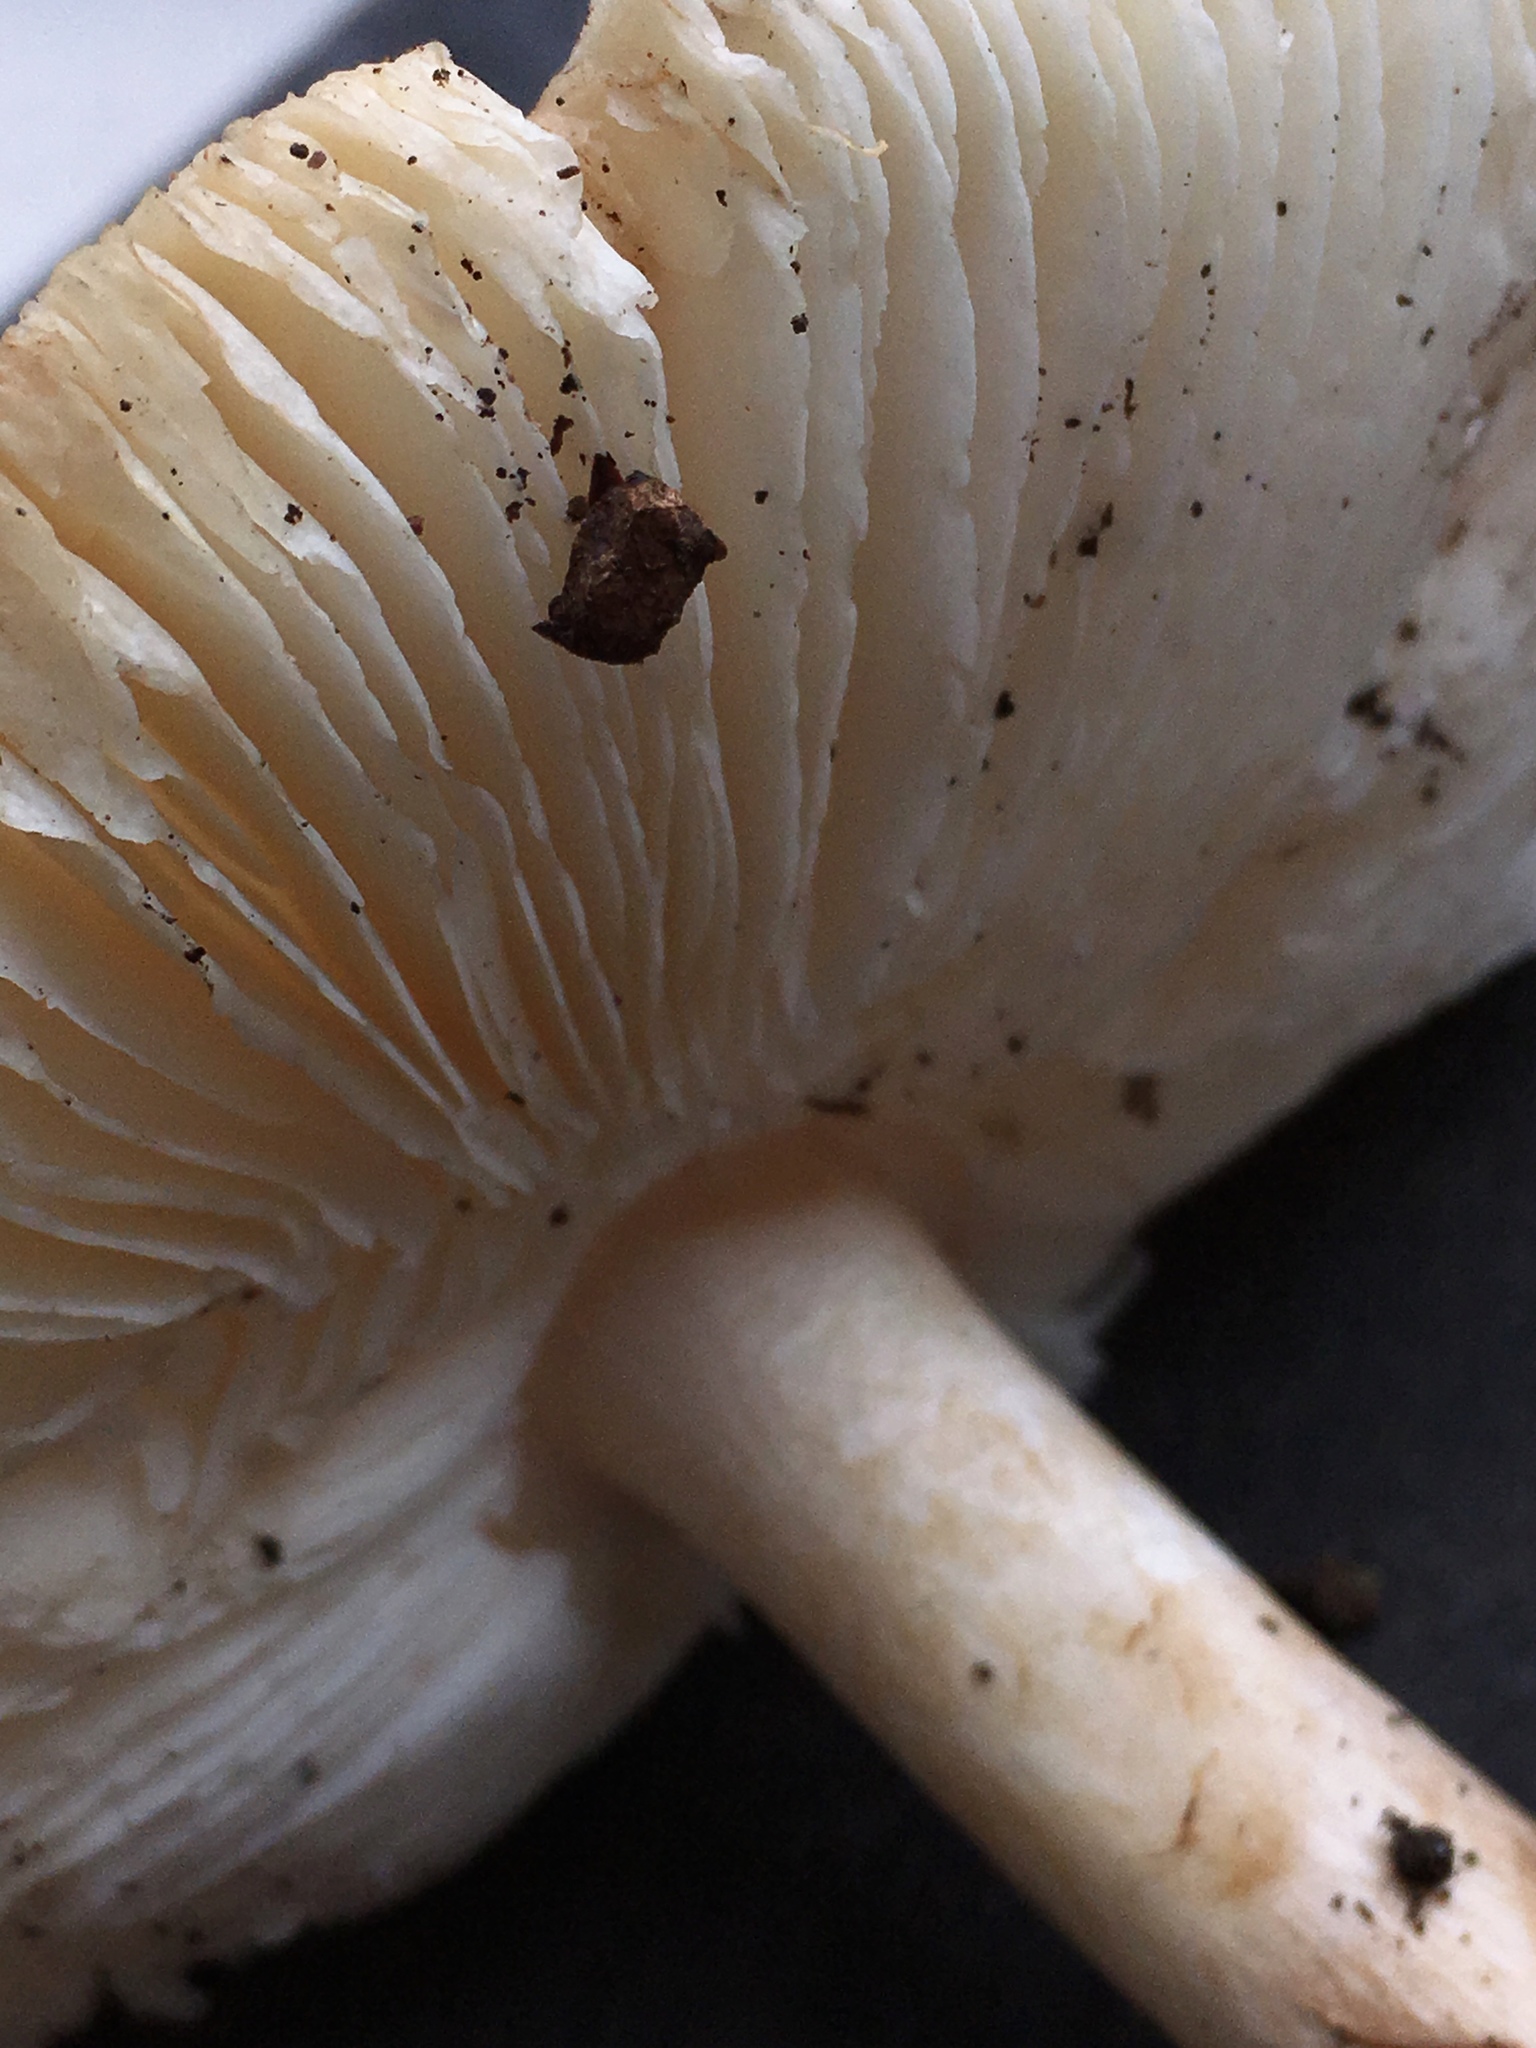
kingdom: Fungi
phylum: Basidiomycota
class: Agaricomycetes
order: Agaricales
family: Amanitaceae
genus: Amanita
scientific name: Amanita brunnescens
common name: Brown american star-footed amanita
